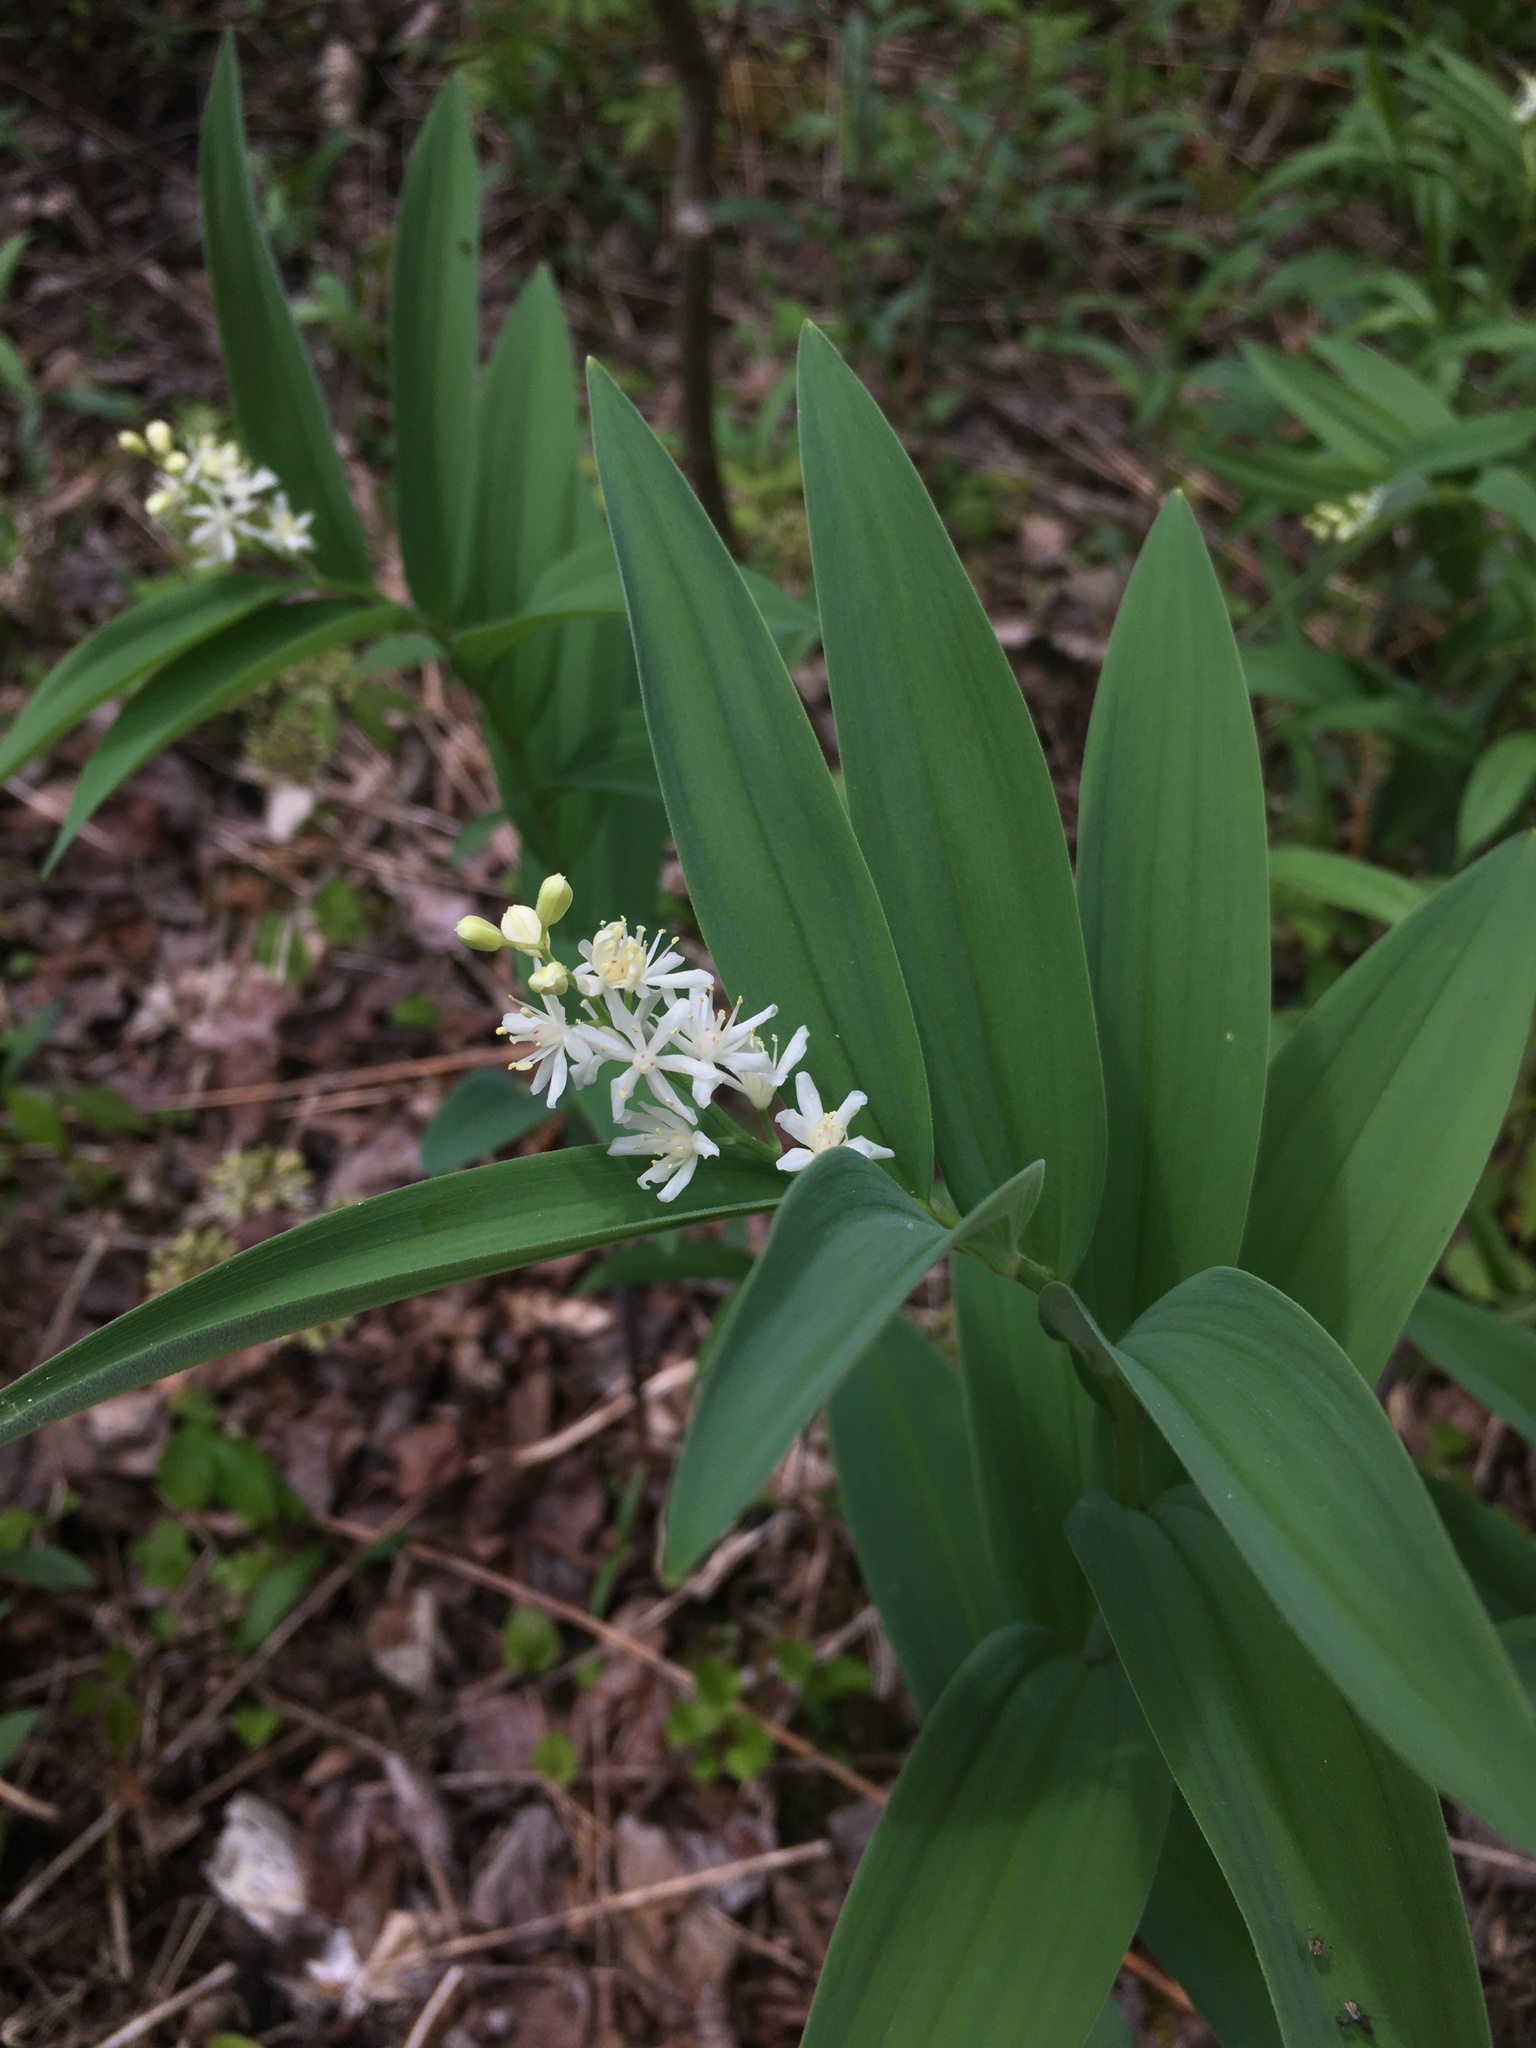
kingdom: Plantae
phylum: Tracheophyta
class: Liliopsida
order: Asparagales
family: Asparagaceae
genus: Maianthemum
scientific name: Maianthemum stellatum
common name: Little false solomon's seal
